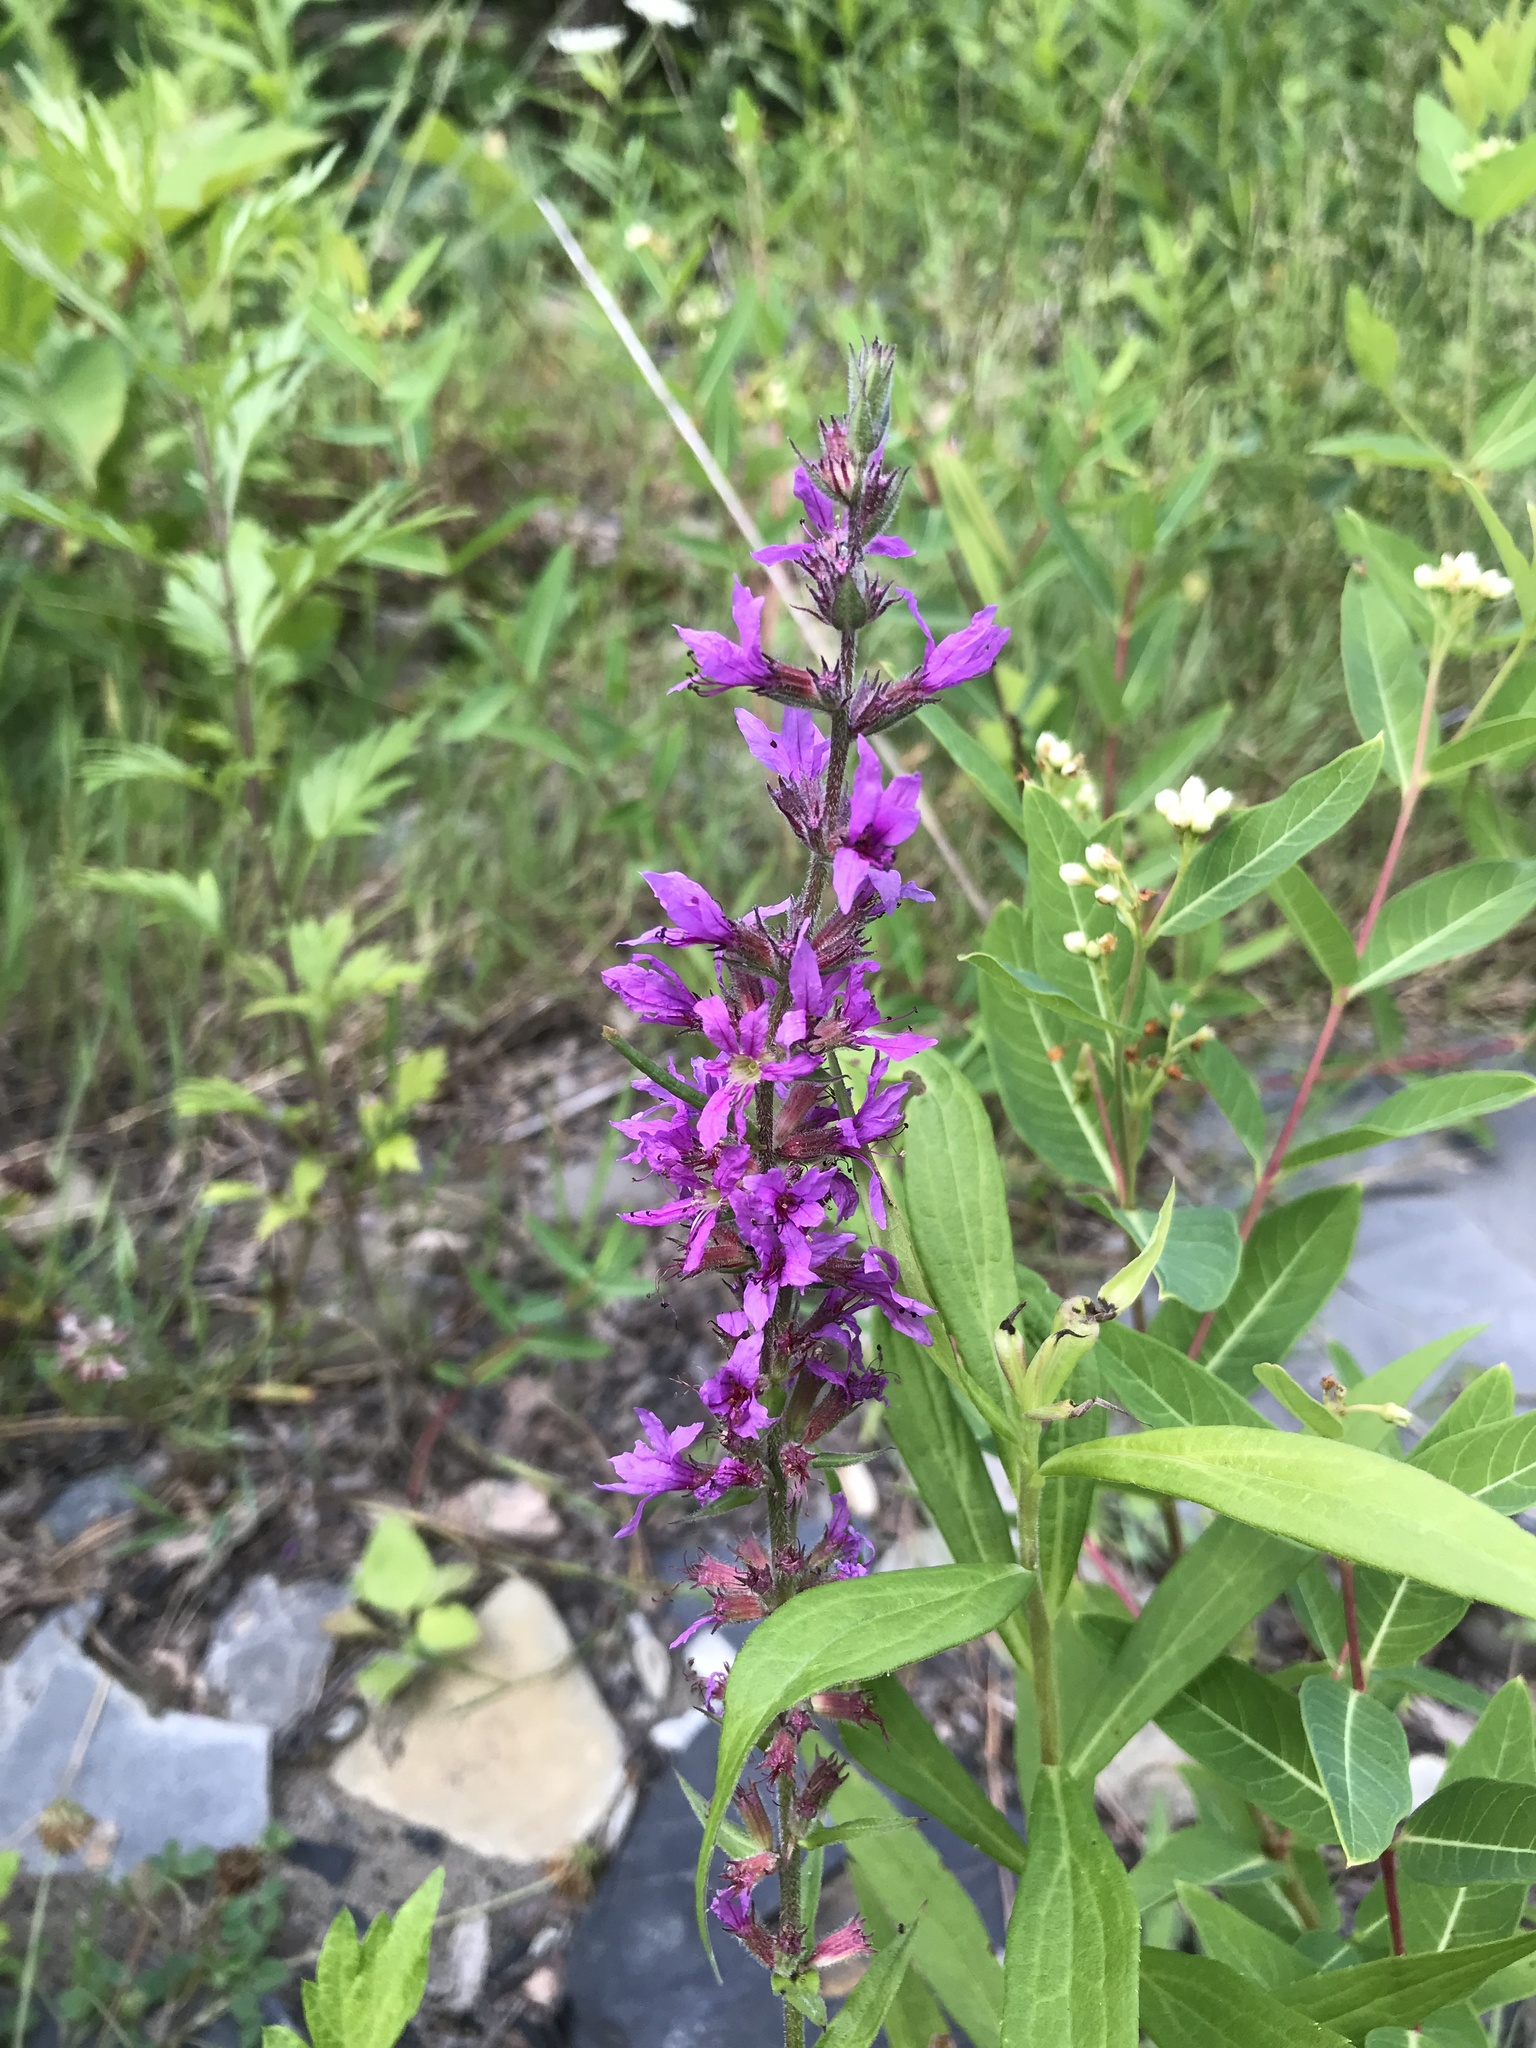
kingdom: Plantae
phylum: Tracheophyta
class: Magnoliopsida
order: Myrtales
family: Lythraceae
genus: Lythrum
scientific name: Lythrum salicaria
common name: Purple loosestrife
